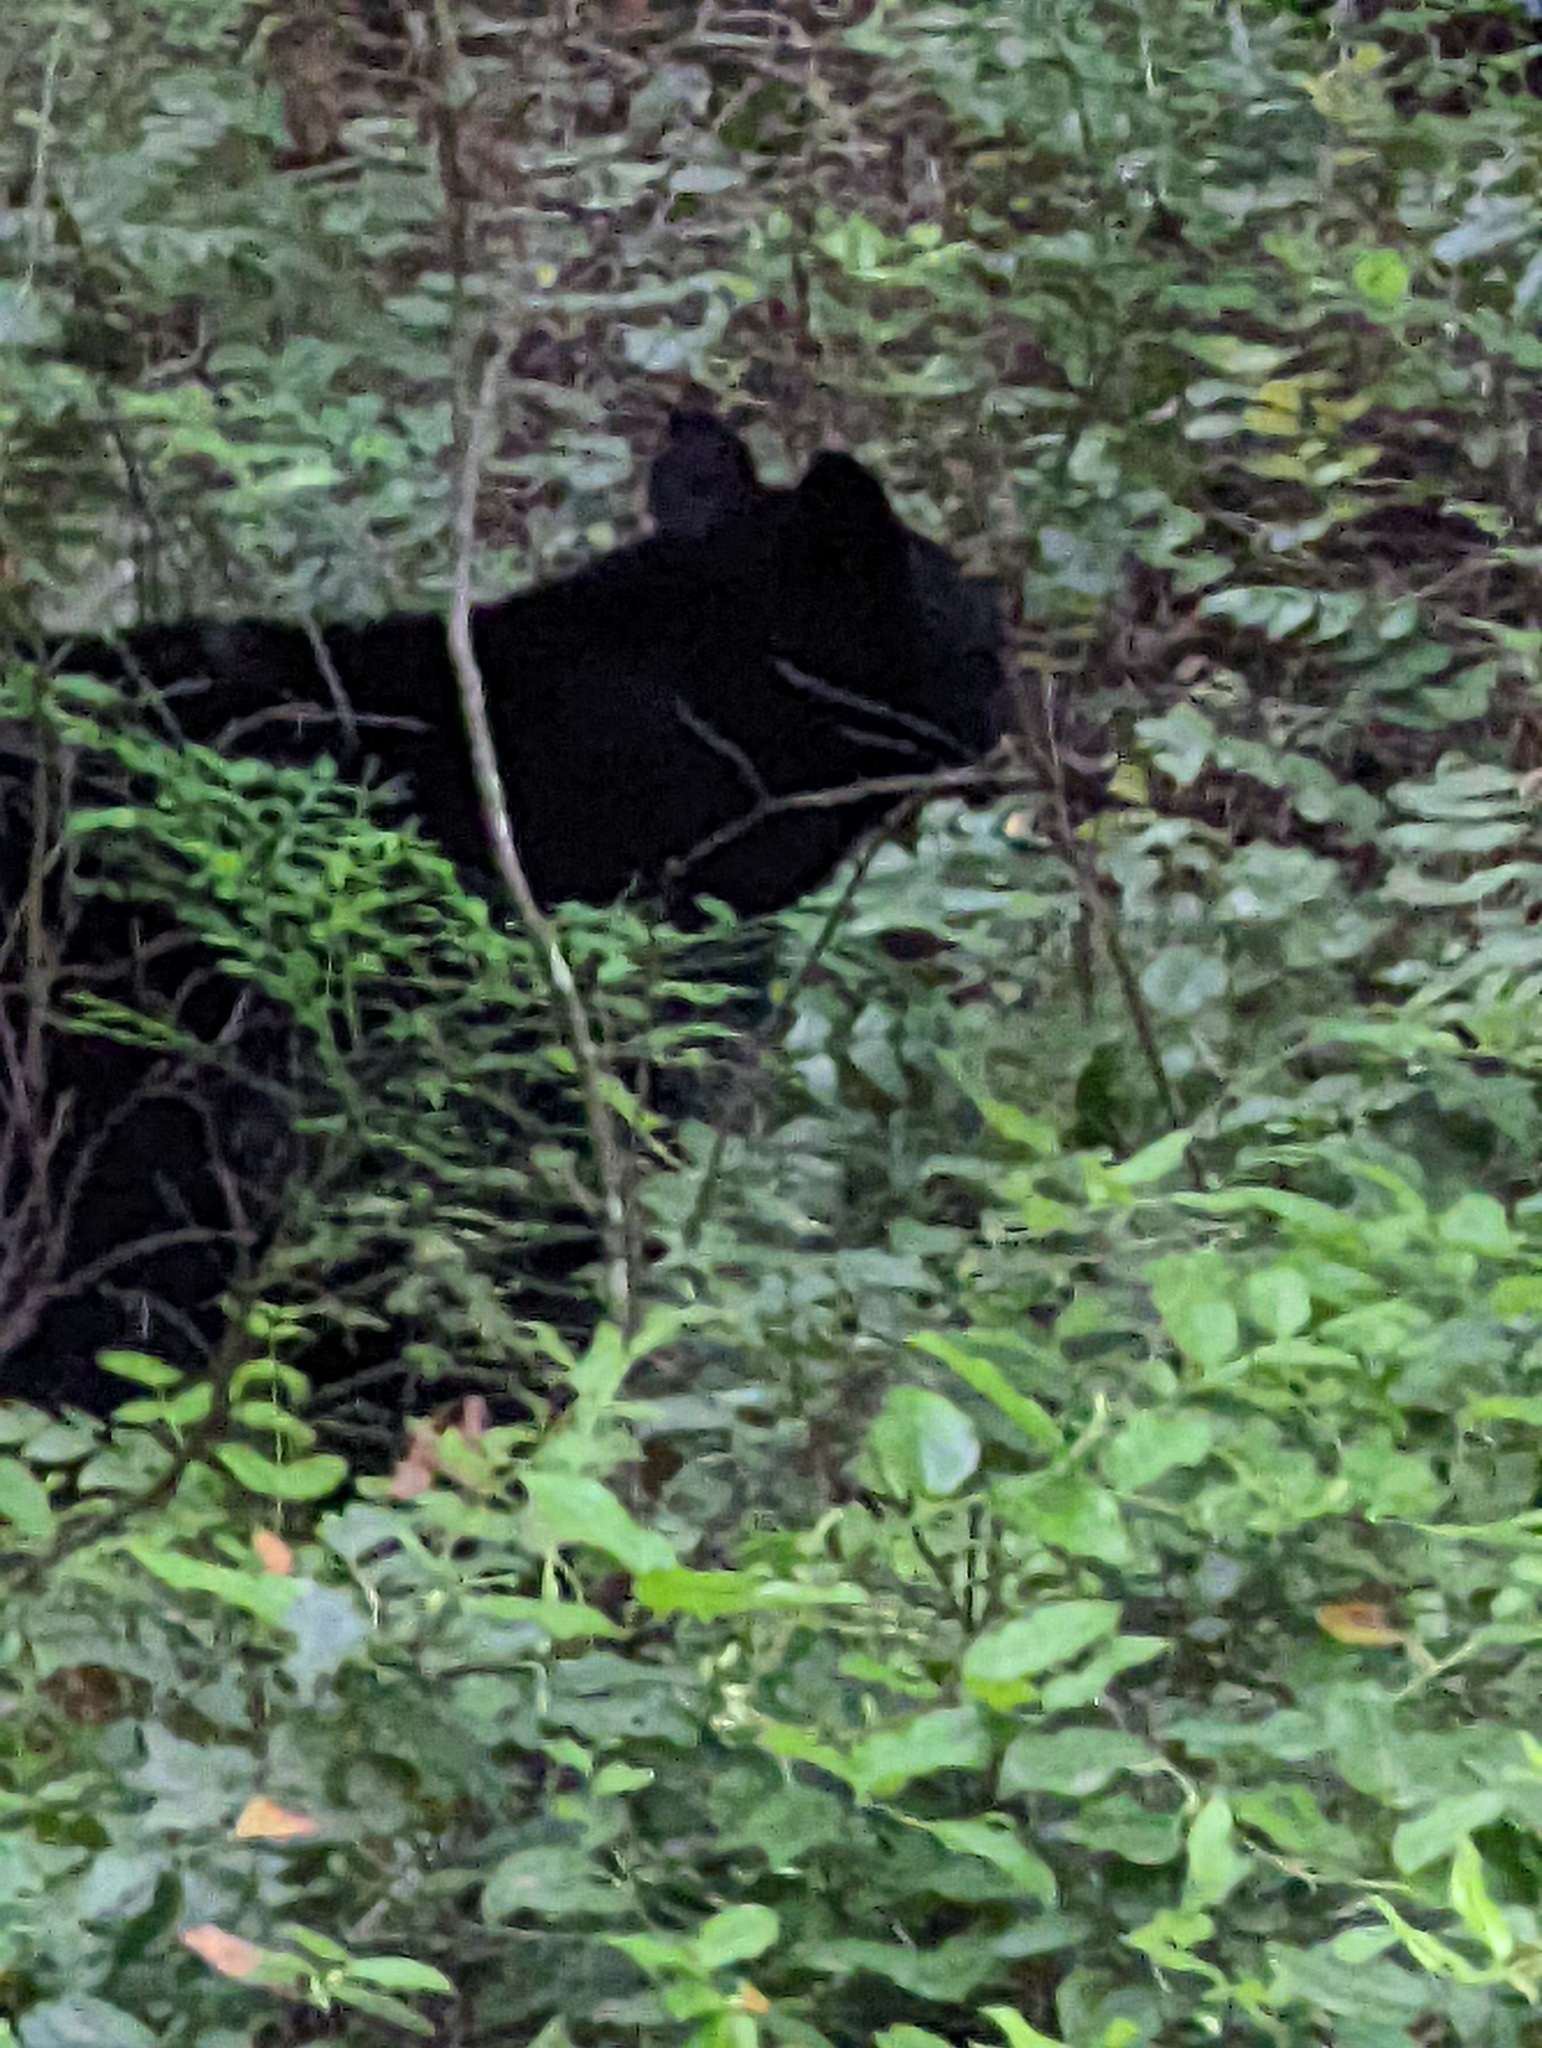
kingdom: Animalia
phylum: Chordata
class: Mammalia
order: Carnivora
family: Ursidae
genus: Ursus
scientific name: Ursus americanus
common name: American black bear
